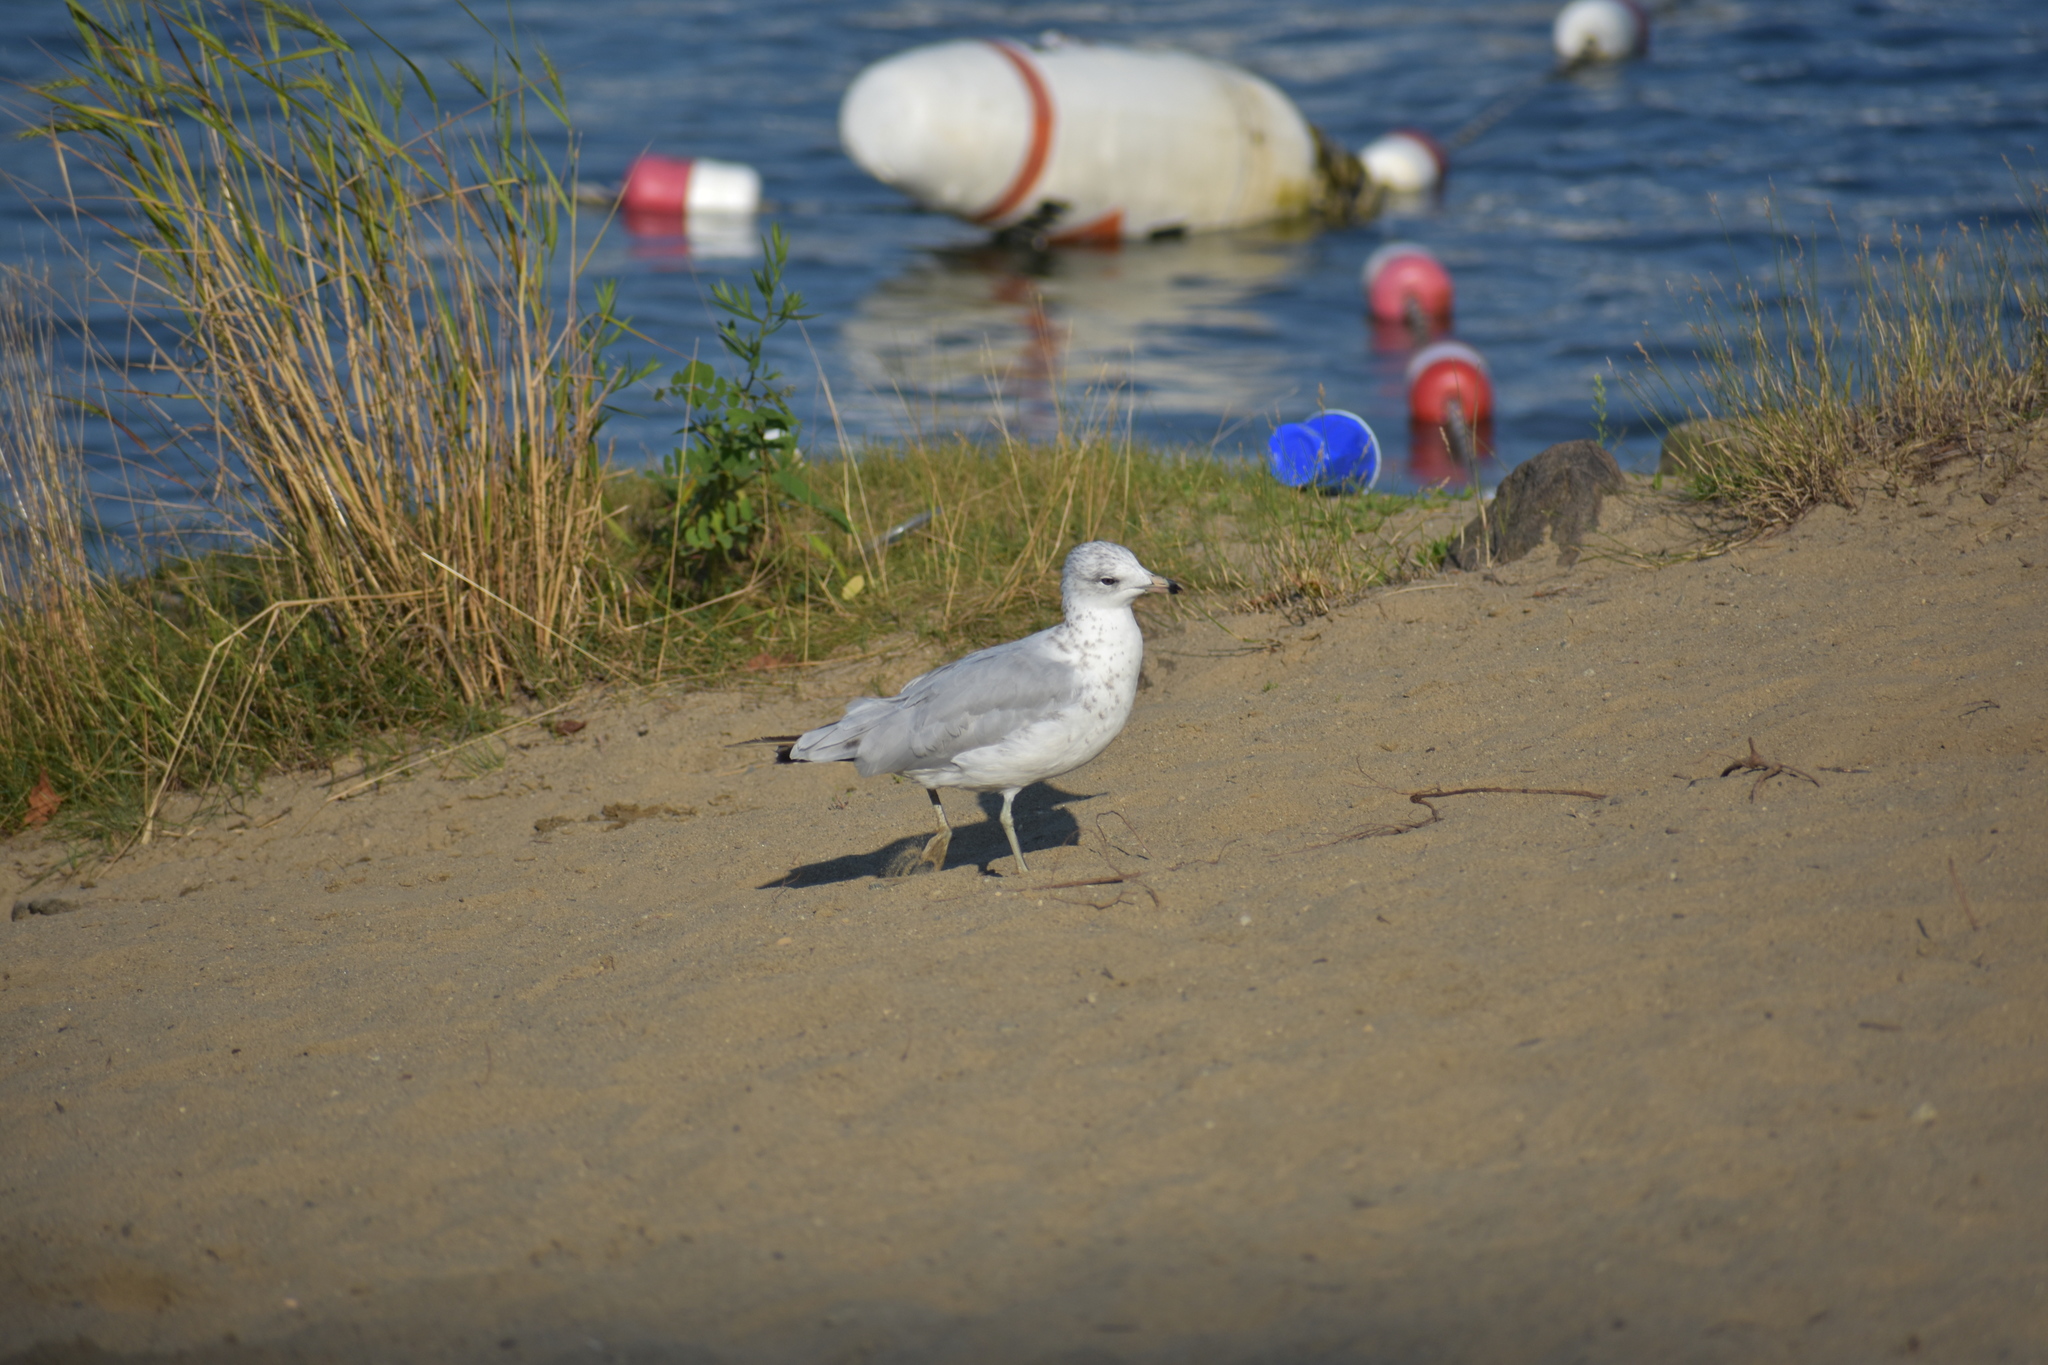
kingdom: Animalia
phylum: Chordata
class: Aves
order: Charadriiformes
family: Laridae
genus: Larus
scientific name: Larus delawarensis
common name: Ring-billed gull
